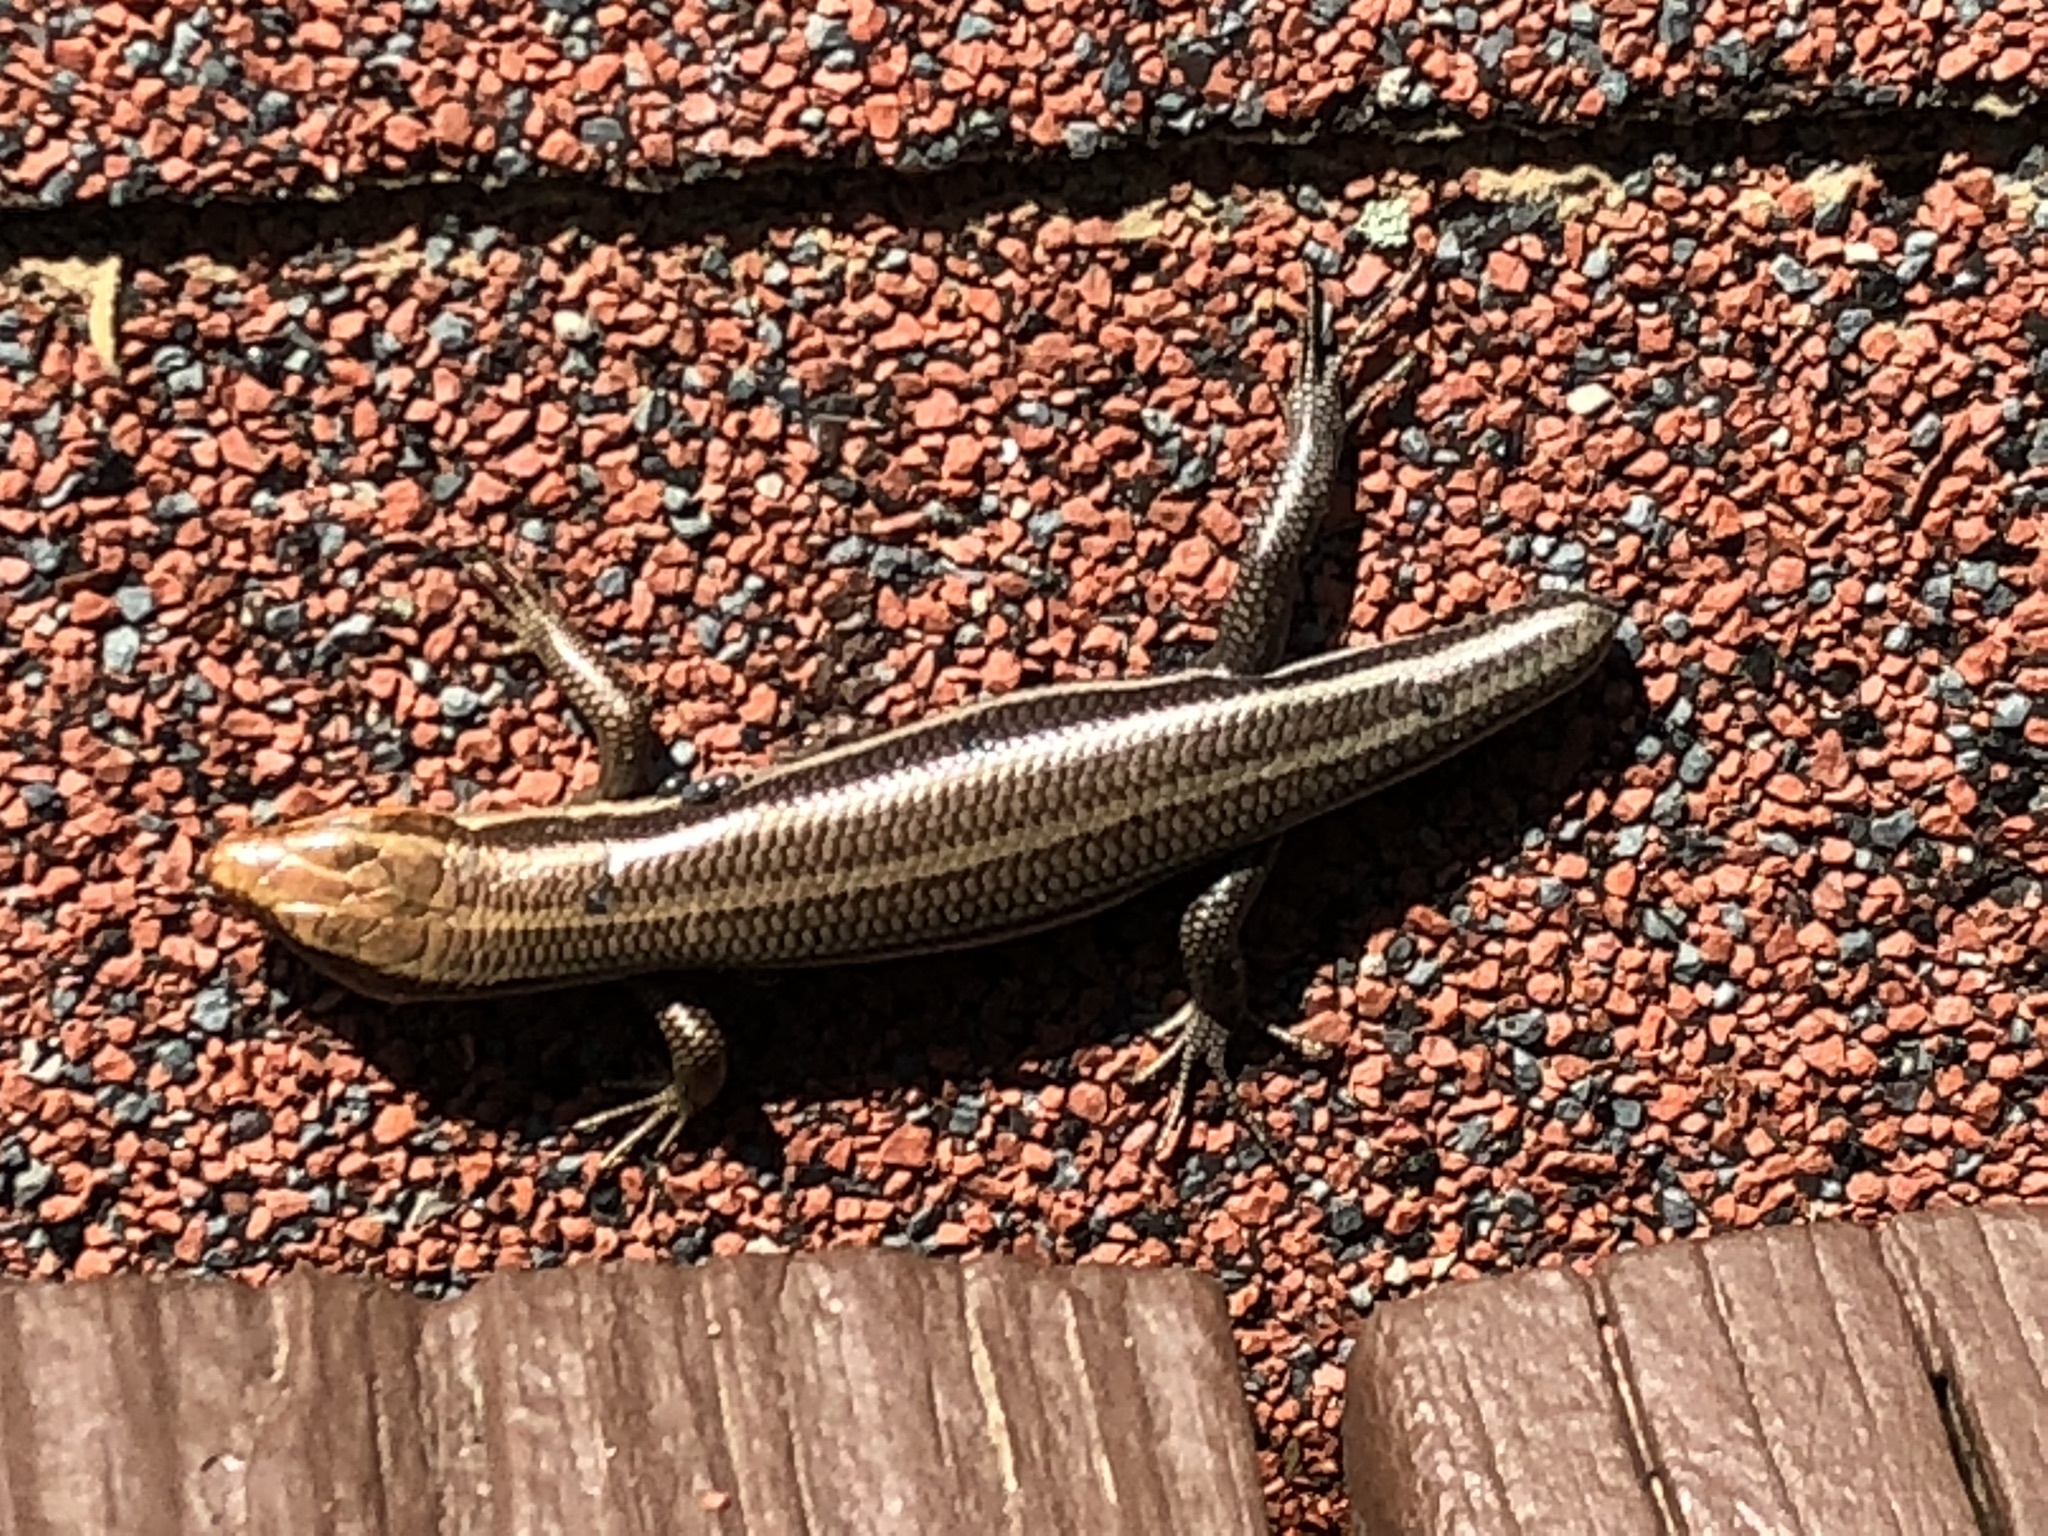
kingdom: Animalia
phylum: Chordata
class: Squamata
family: Scincidae
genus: Plestiodon
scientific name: Plestiodon
